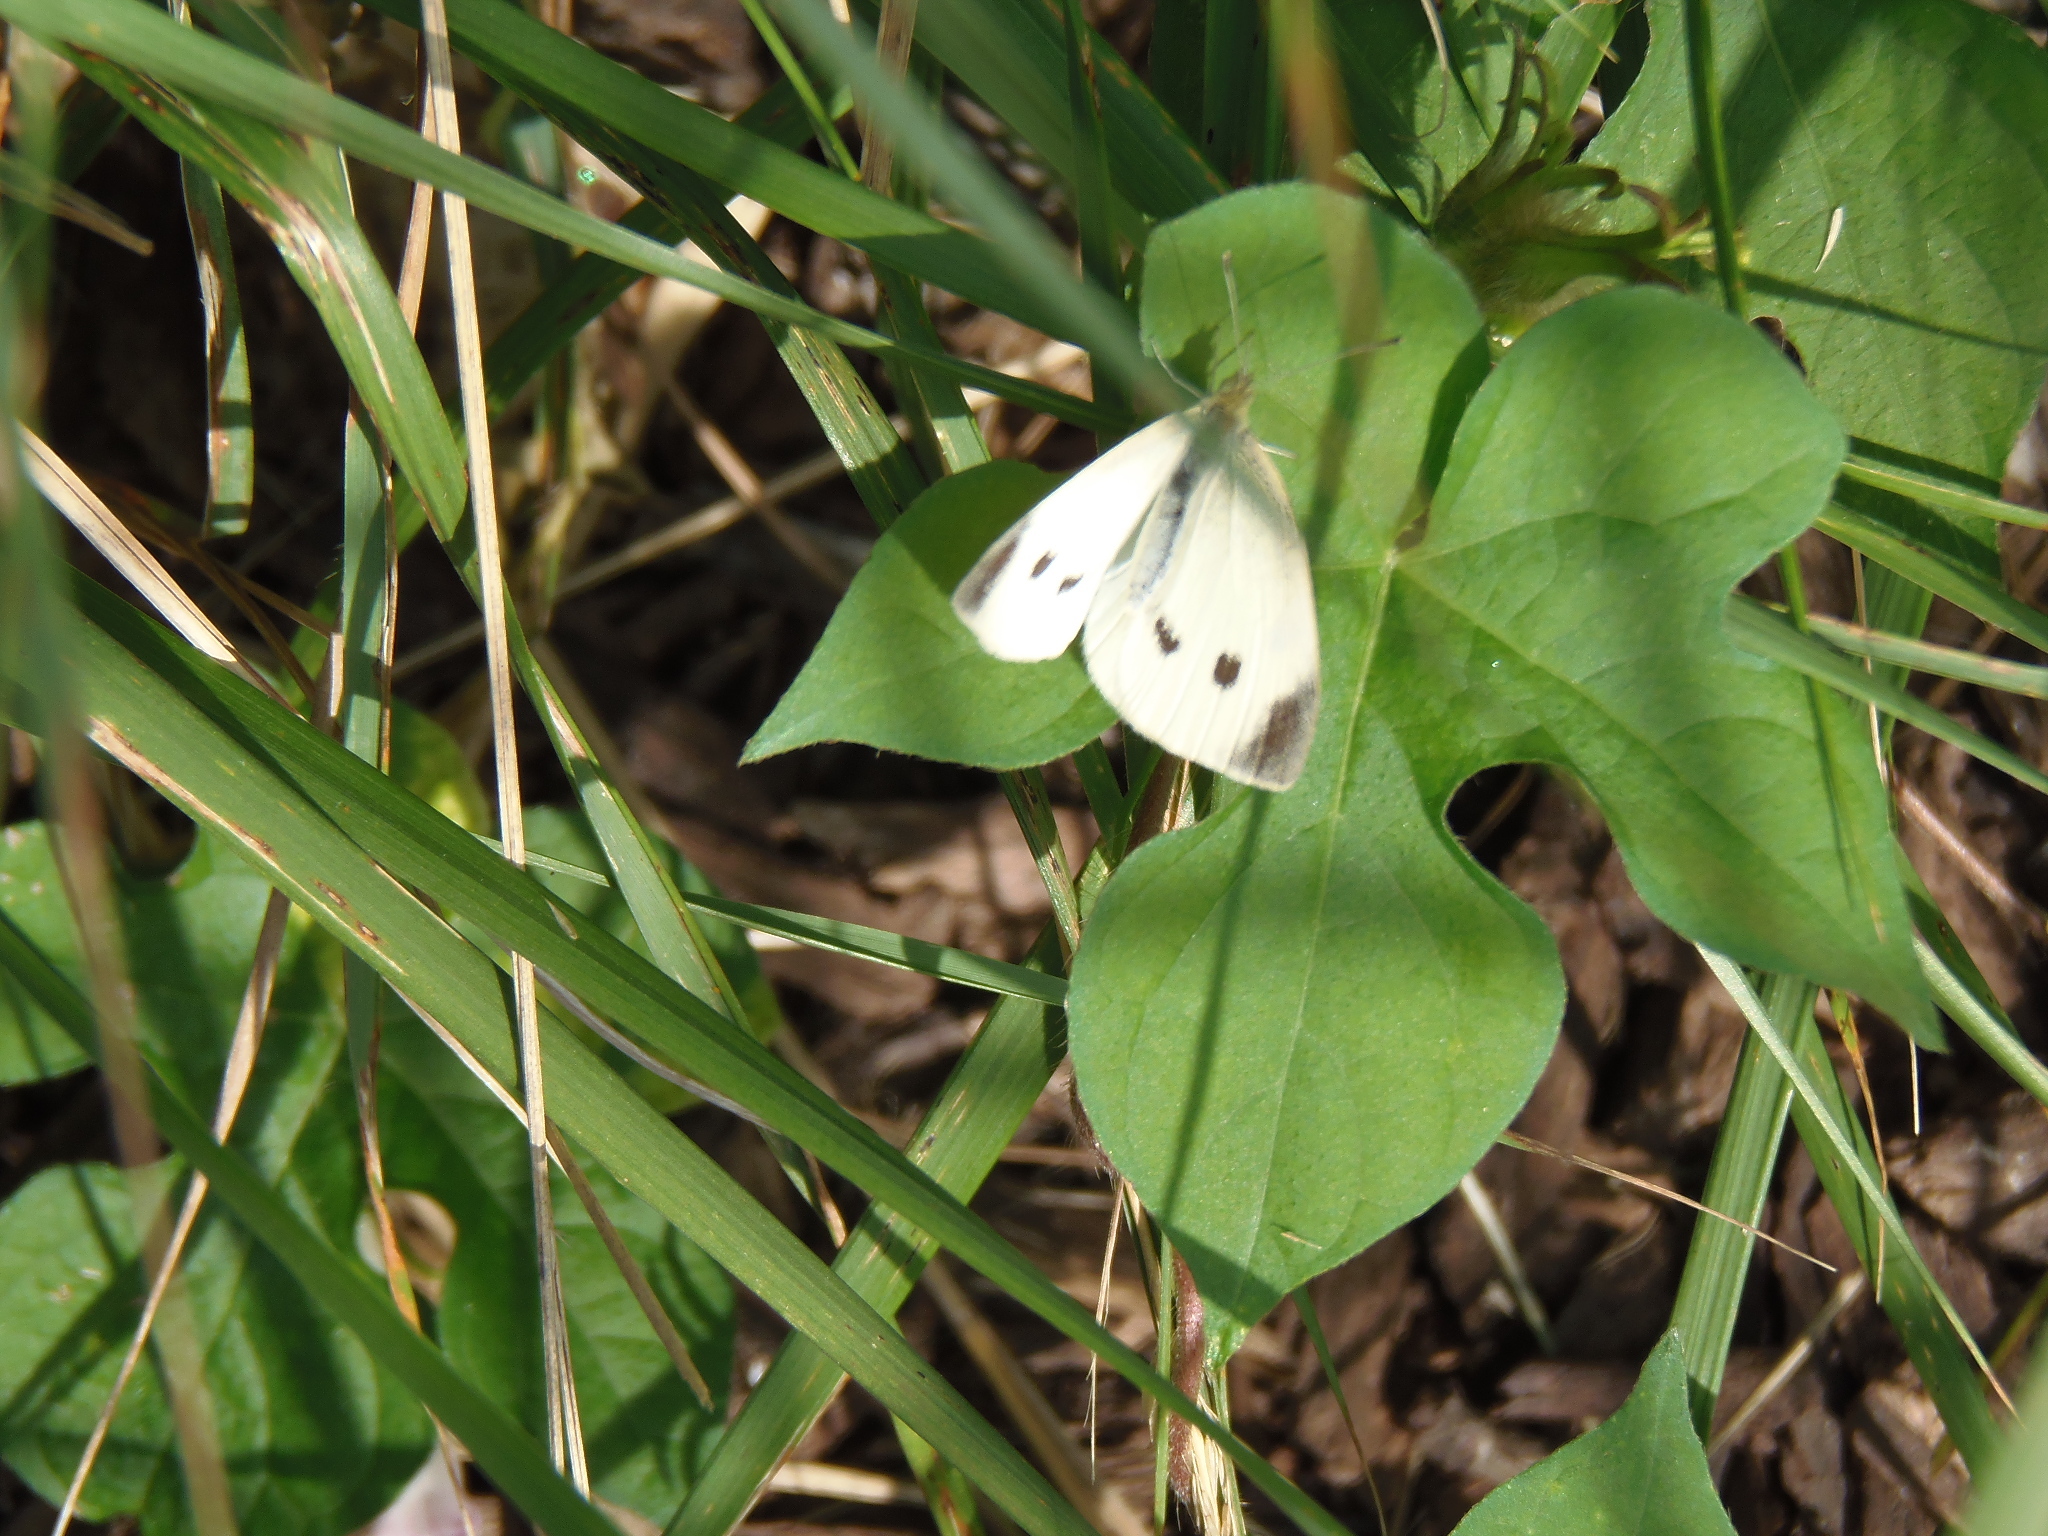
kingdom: Animalia
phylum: Arthropoda
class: Insecta
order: Lepidoptera
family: Pieridae
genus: Pieris
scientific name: Pieris rapae
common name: Small white
